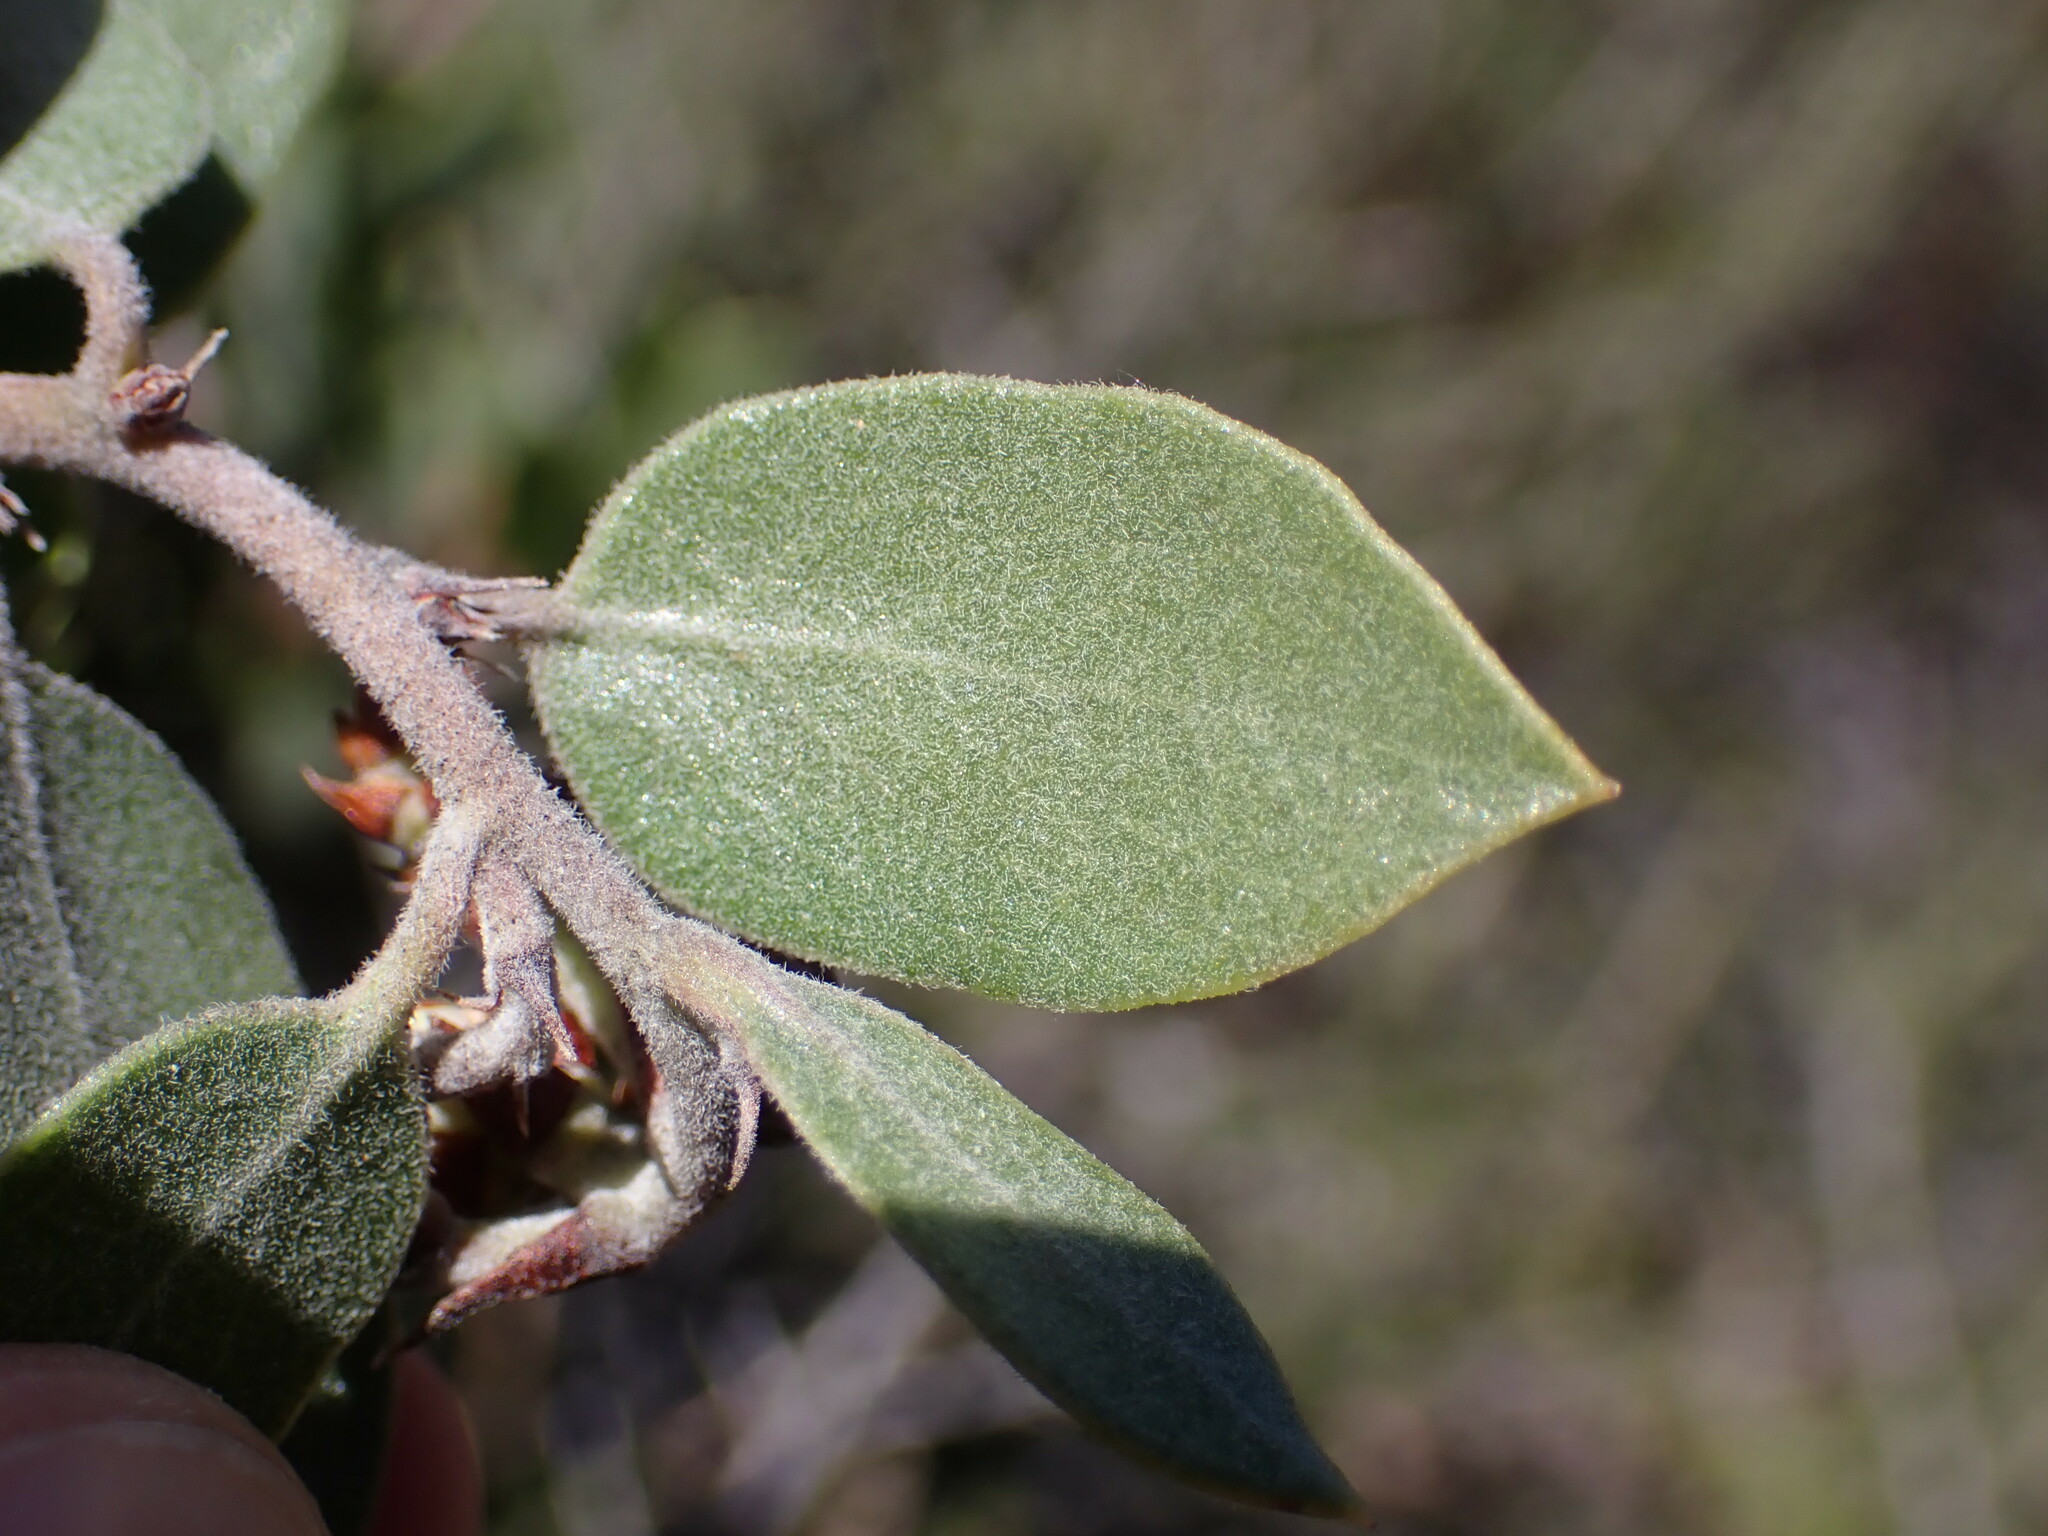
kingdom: Plantae
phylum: Tracheophyta
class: Magnoliopsida
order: Ericales
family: Ericaceae
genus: Arctostaphylos
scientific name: Arctostaphylos montana
